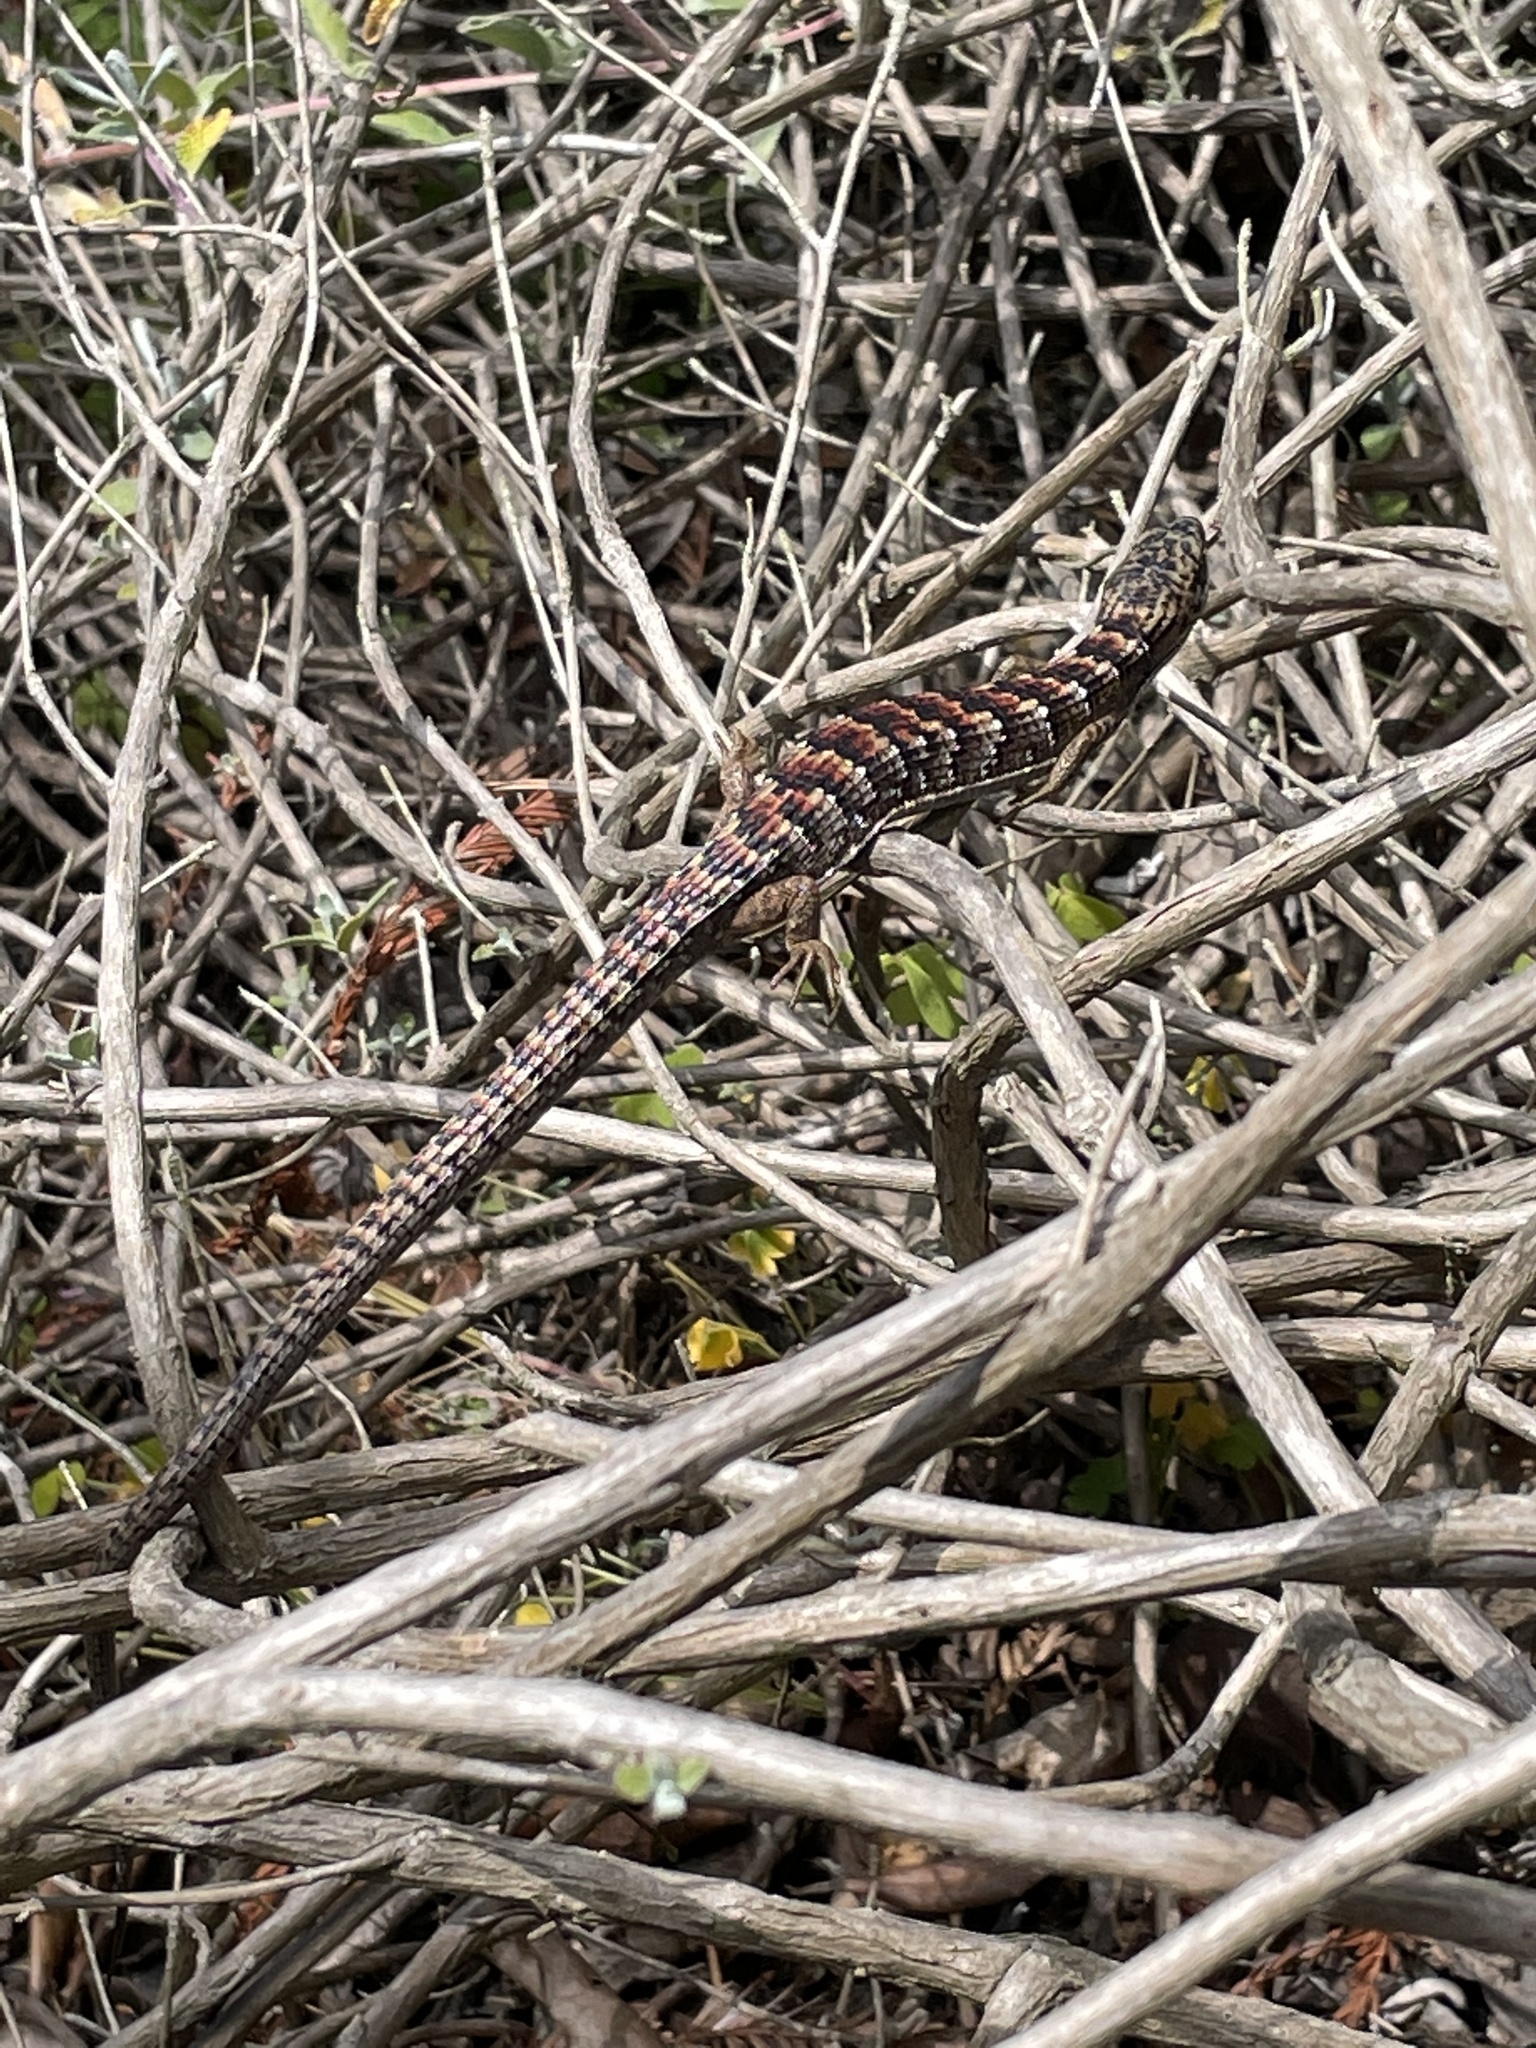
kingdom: Animalia
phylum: Chordata
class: Squamata
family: Anguidae
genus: Elgaria
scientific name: Elgaria multicarinata
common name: Southern alligator lizard
